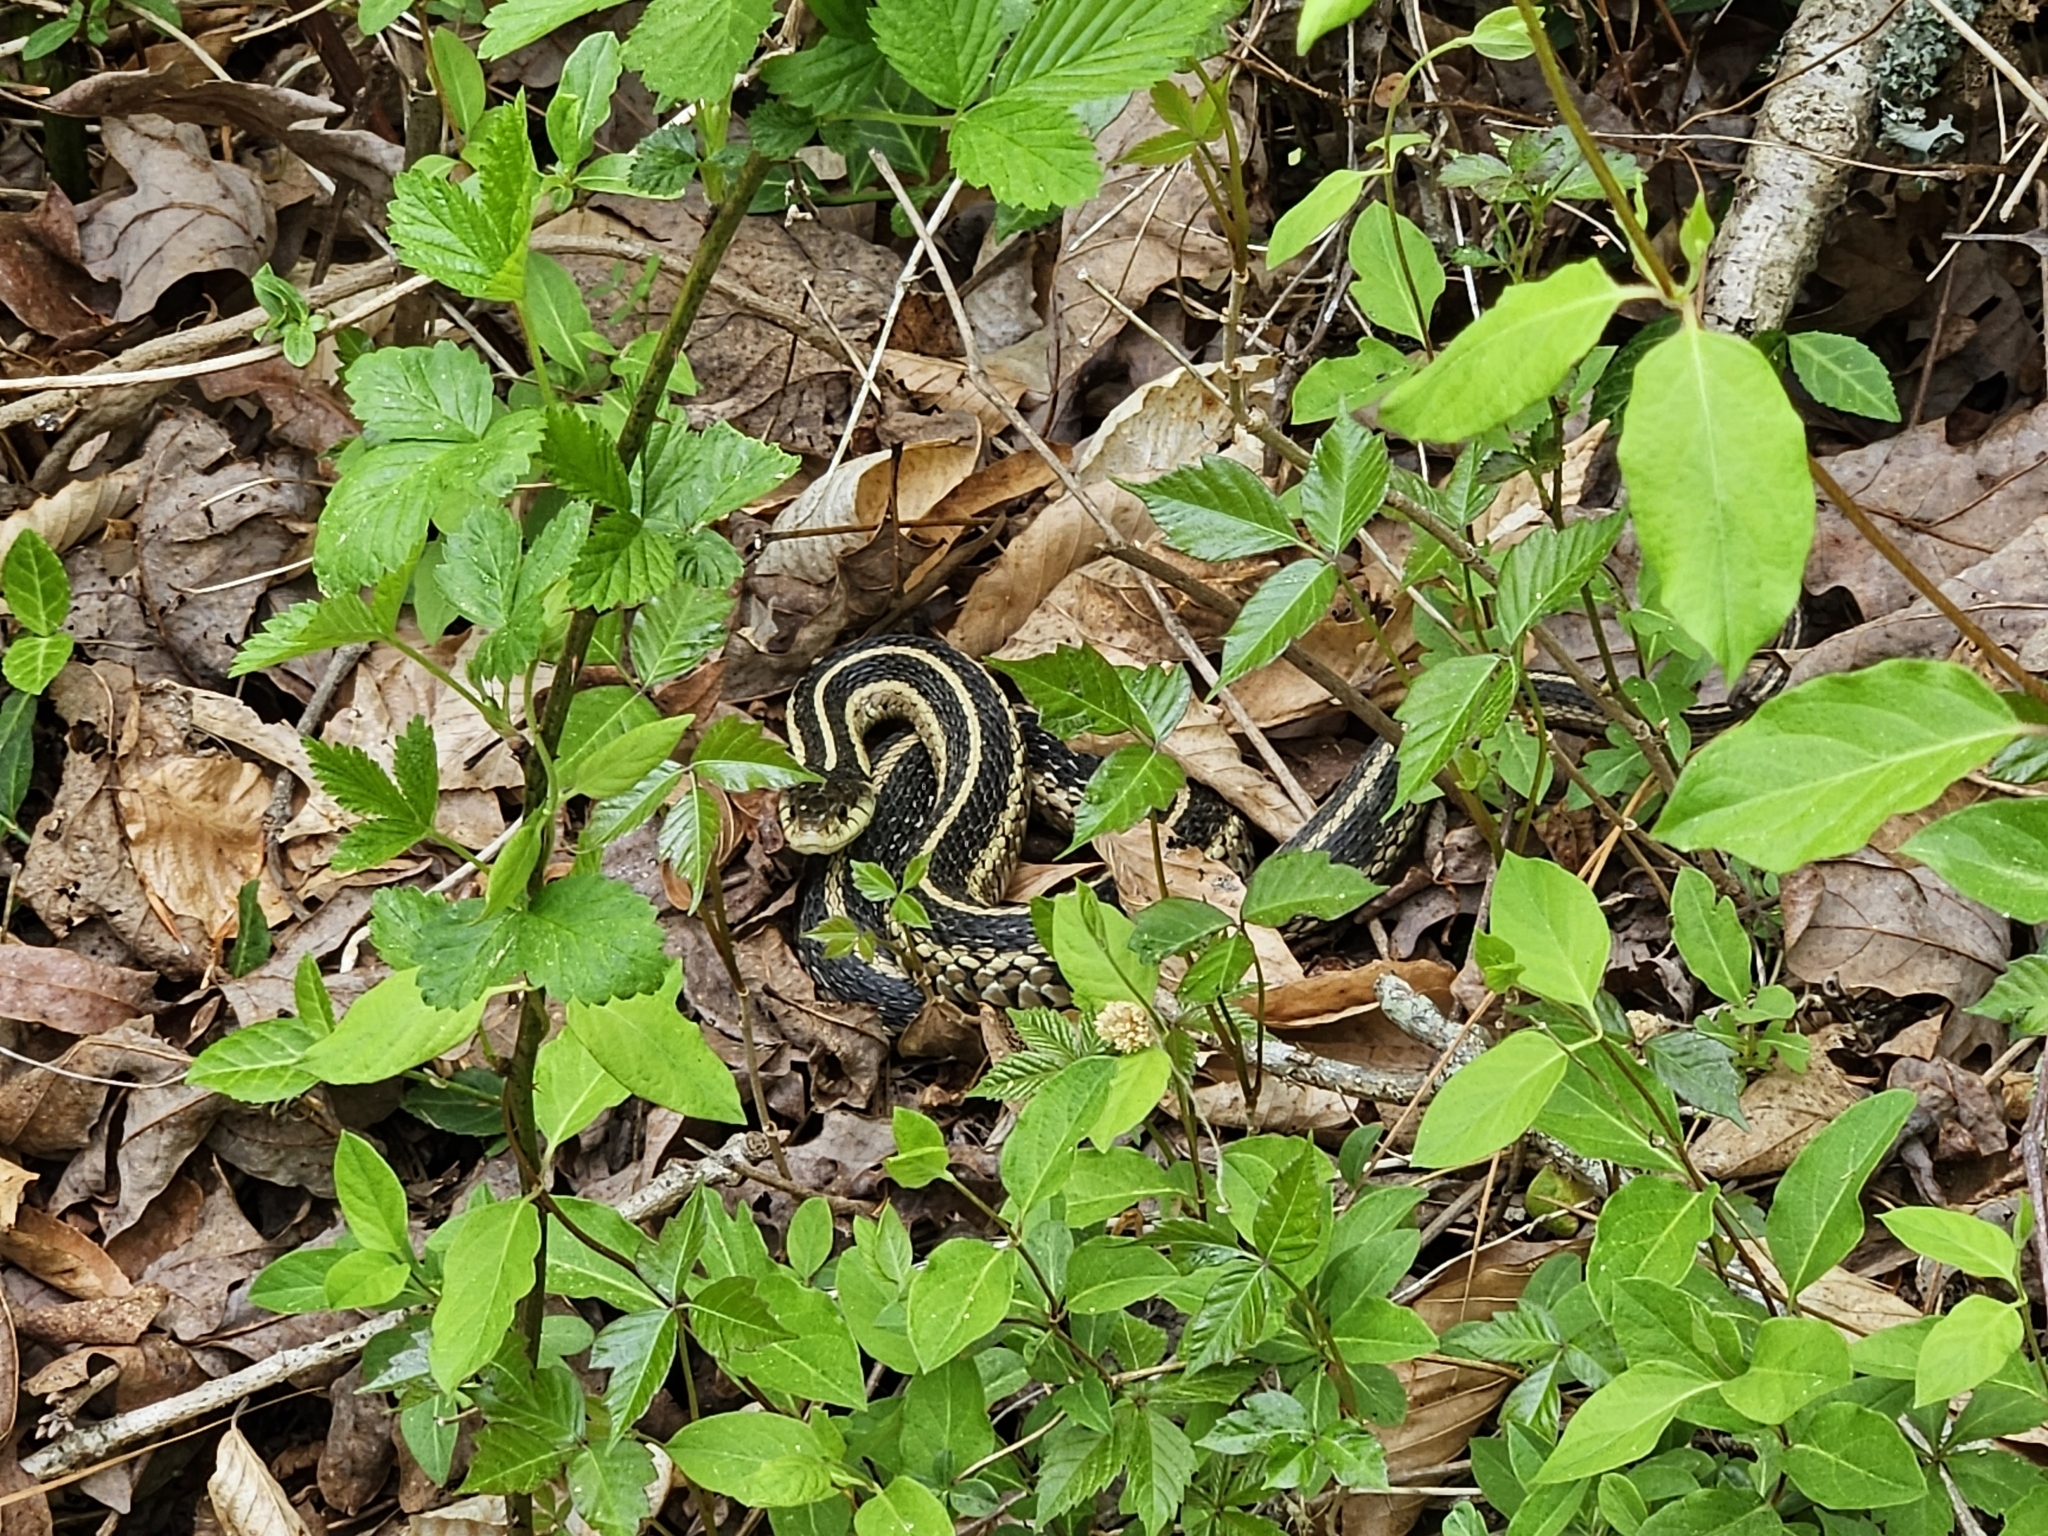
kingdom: Animalia
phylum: Chordata
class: Squamata
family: Colubridae
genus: Thamnophis
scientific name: Thamnophis sirtalis
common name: Common garter snake
